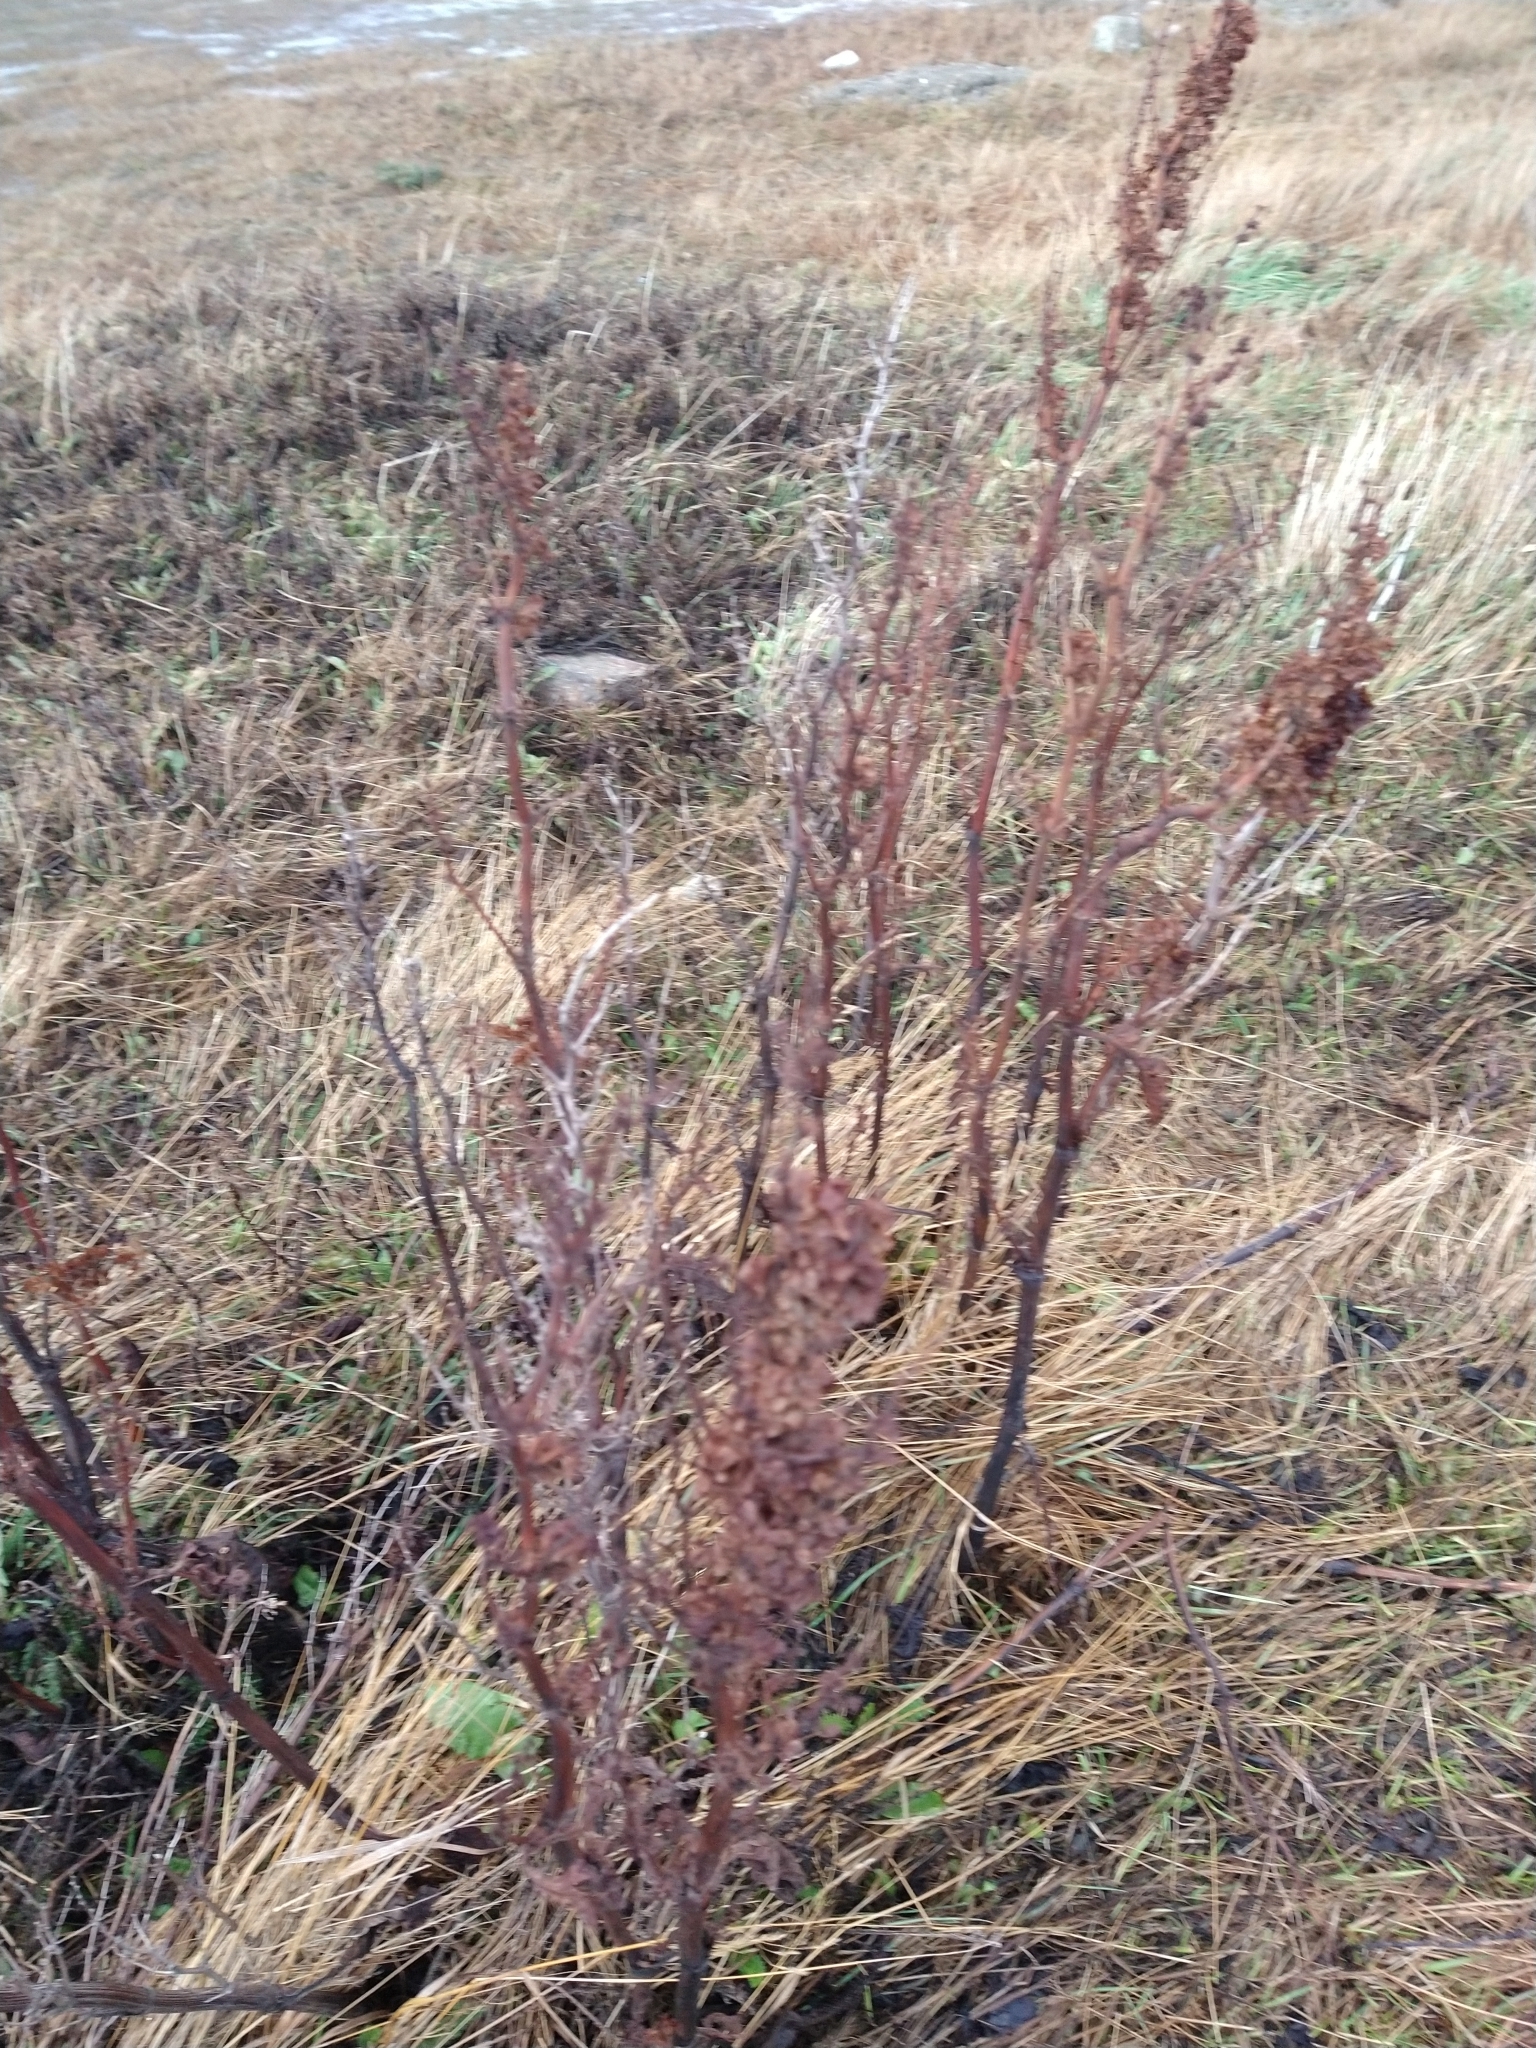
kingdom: Plantae
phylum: Tracheophyta
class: Magnoliopsida
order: Caryophyllales
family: Polygonaceae
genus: Rumex
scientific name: Rumex crispus
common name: Curled dock
